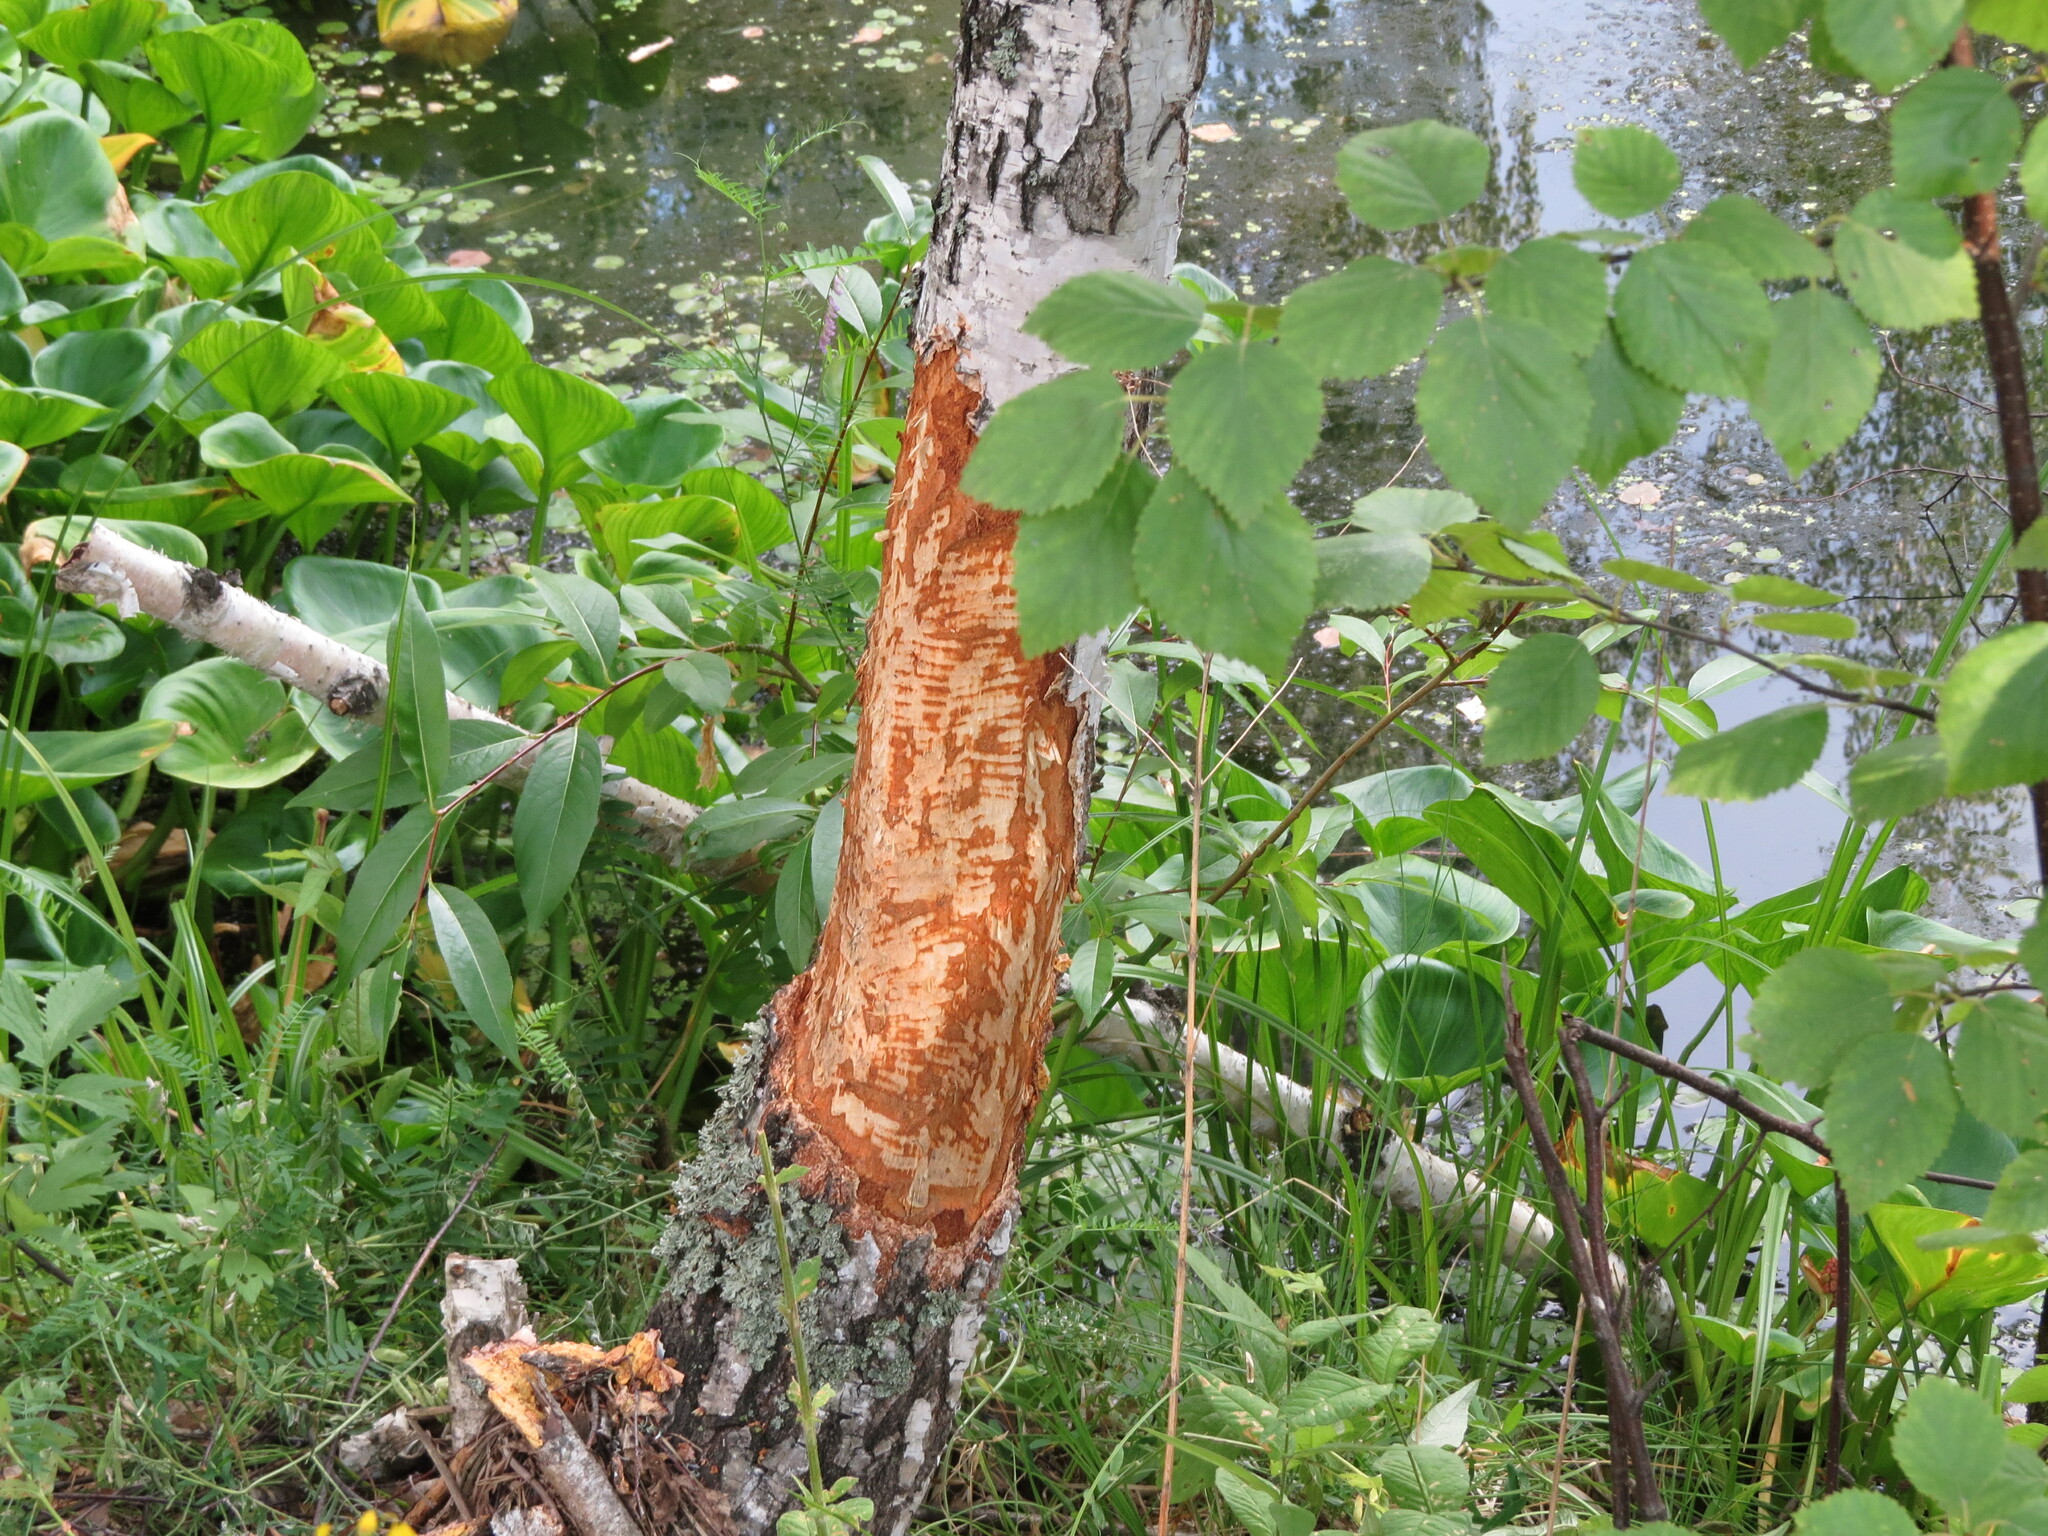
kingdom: Animalia
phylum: Chordata
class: Mammalia
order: Rodentia
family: Castoridae
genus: Castor
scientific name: Castor fiber
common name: Eurasian beaver
